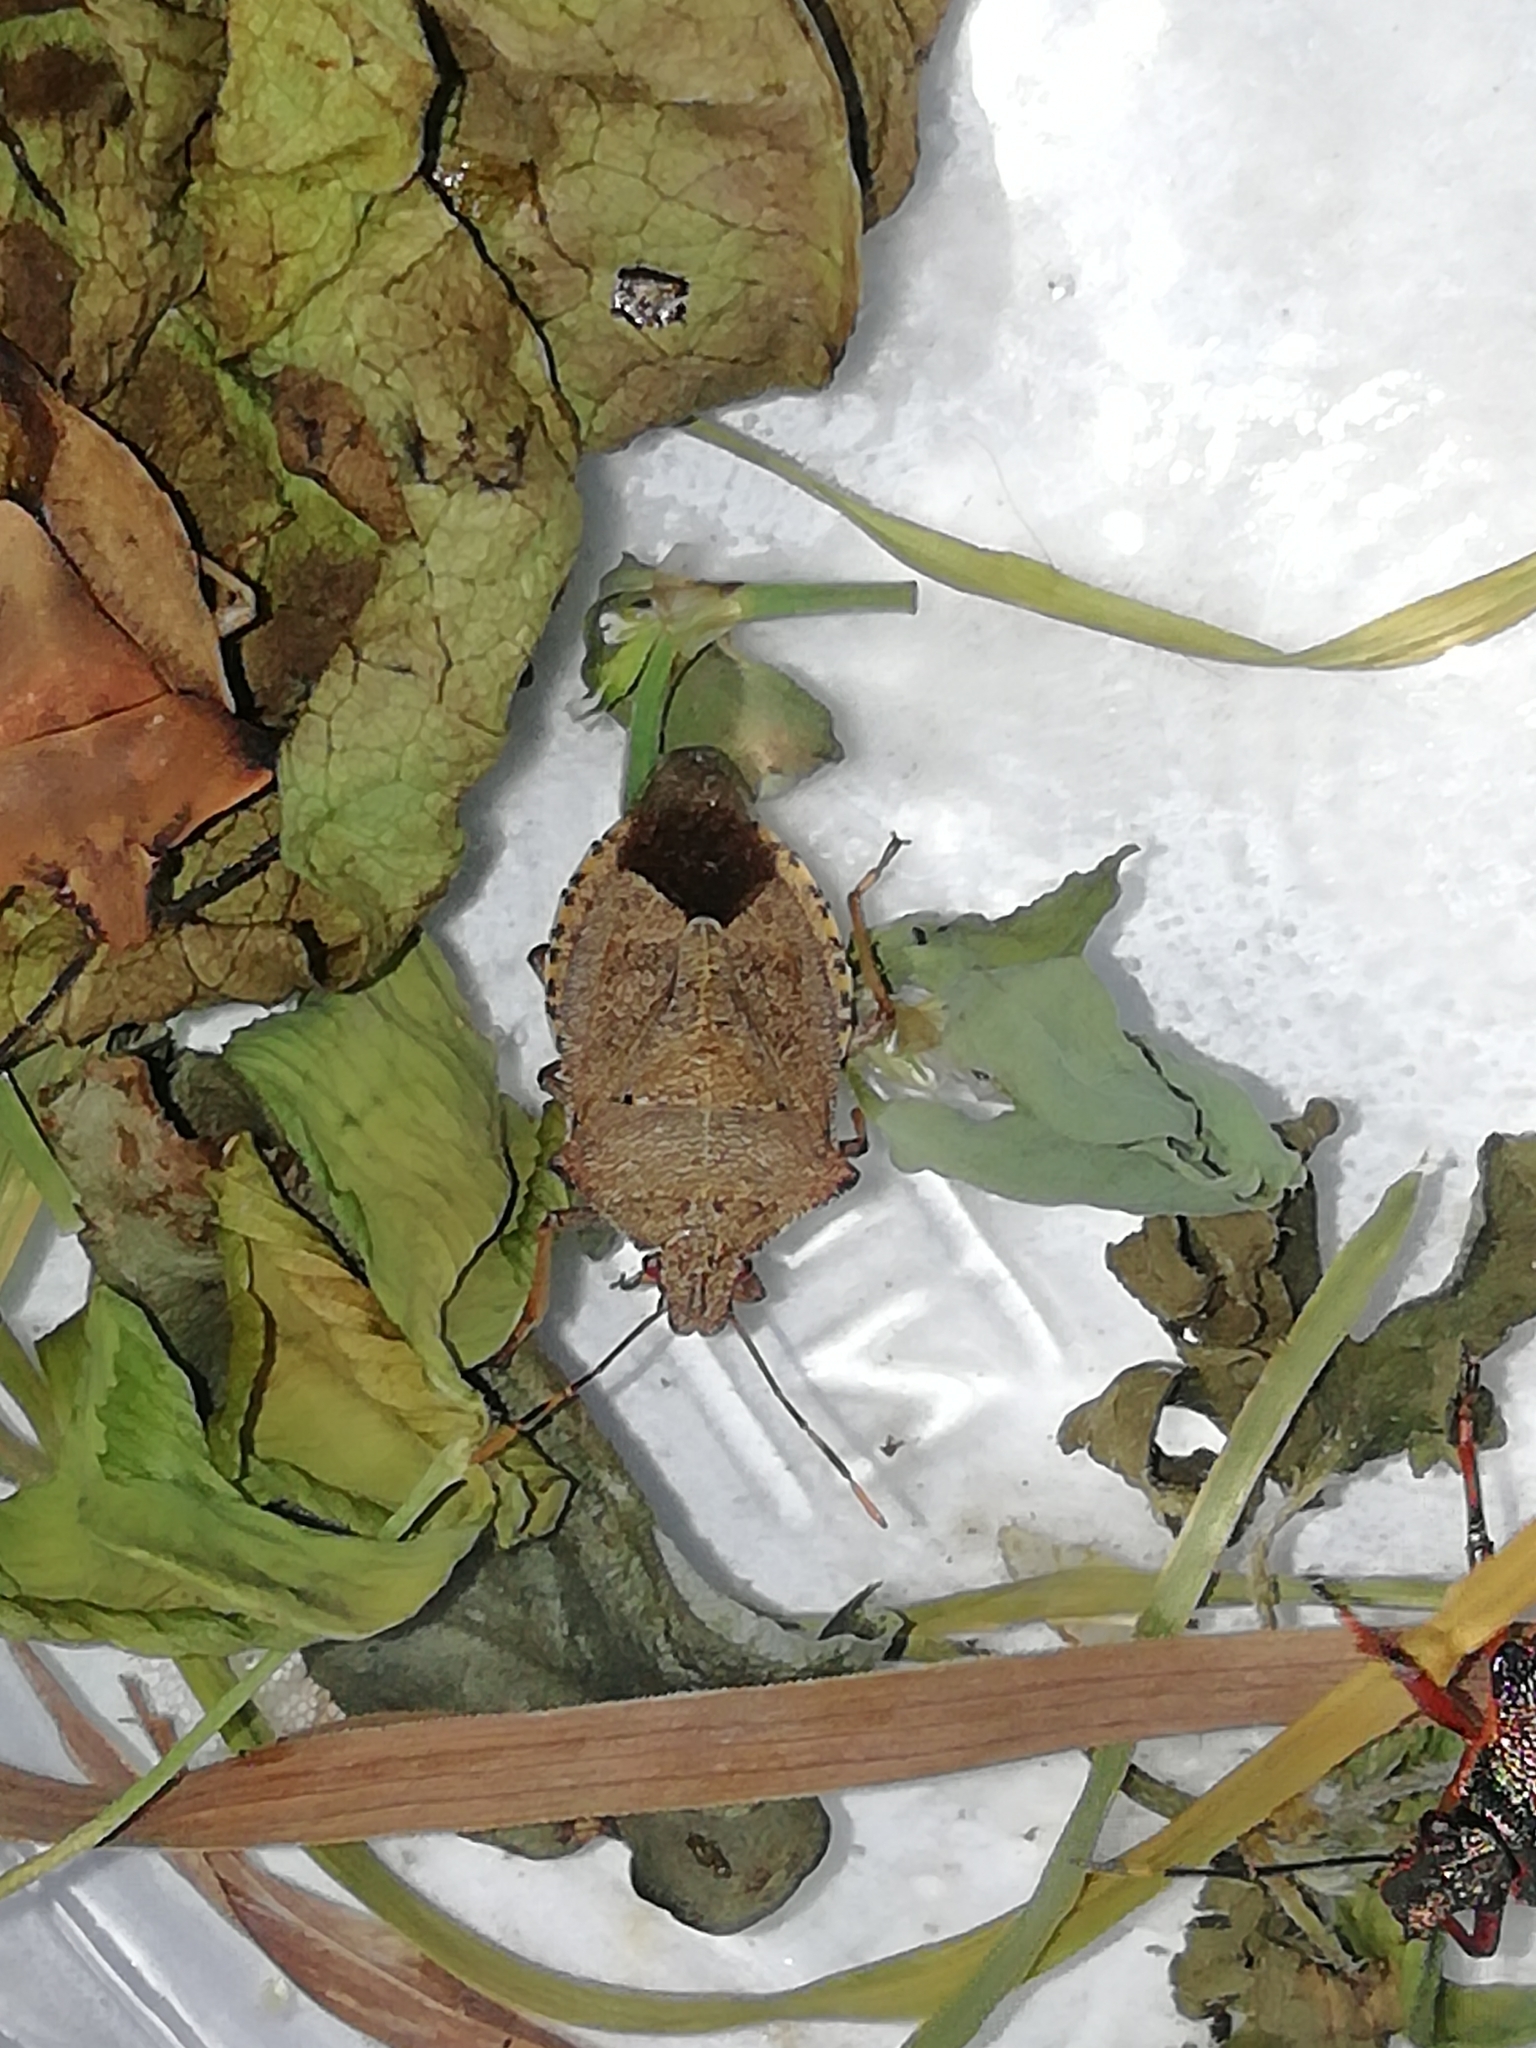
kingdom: Animalia
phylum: Arthropoda
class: Insecta
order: Hemiptera
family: Pentatomidae
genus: Arma
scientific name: Arma custos
